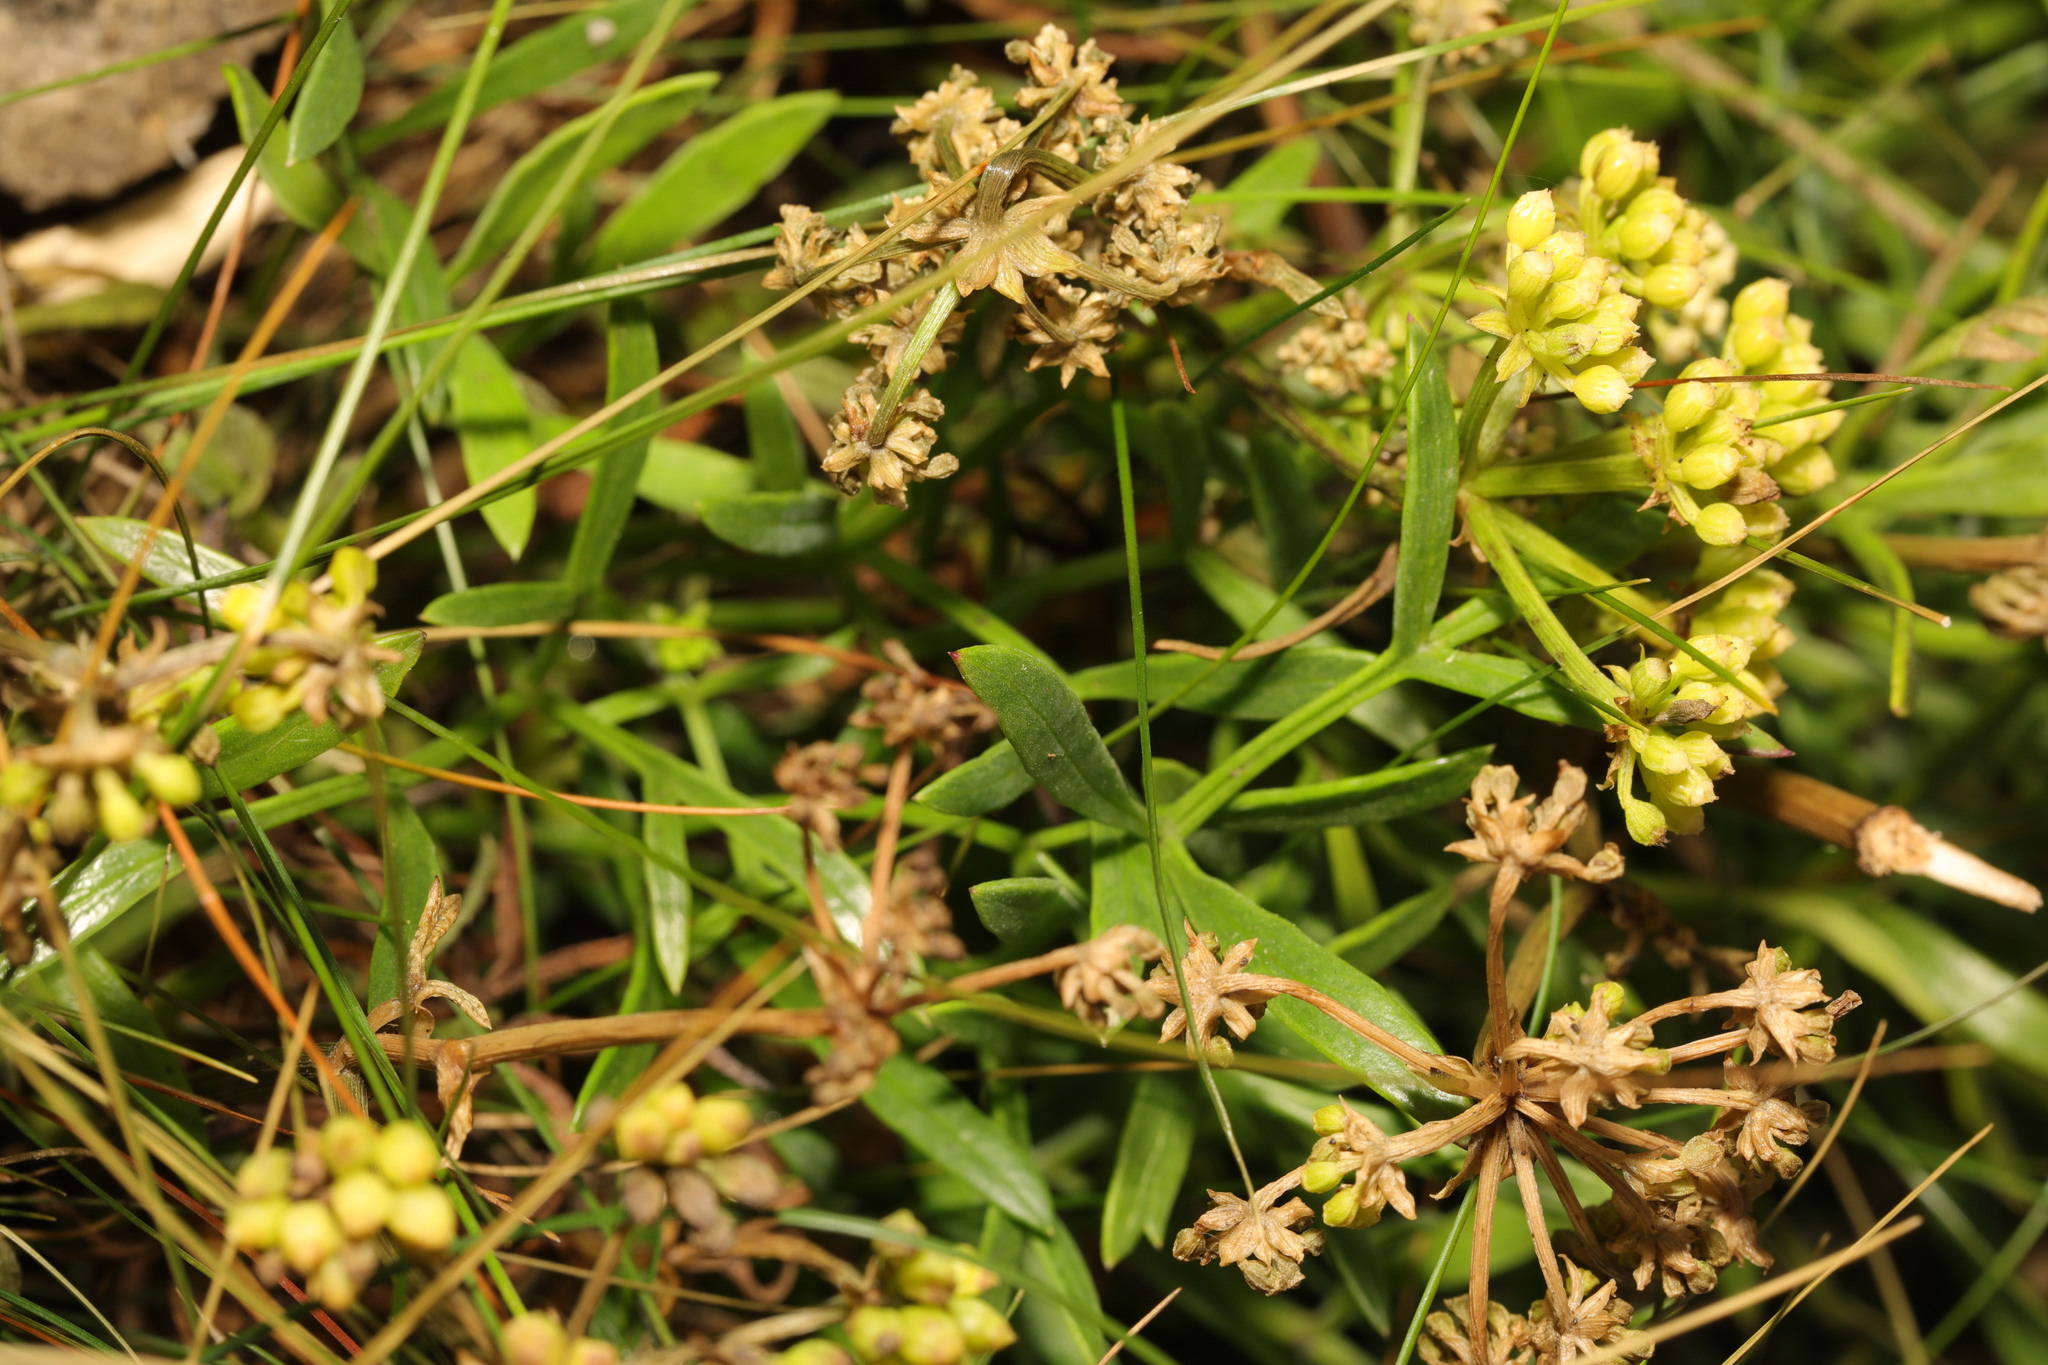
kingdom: Plantae
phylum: Tracheophyta
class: Magnoliopsida
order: Apiales
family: Apiaceae
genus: Crithmum
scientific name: Crithmum maritimum
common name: Rock samphire
